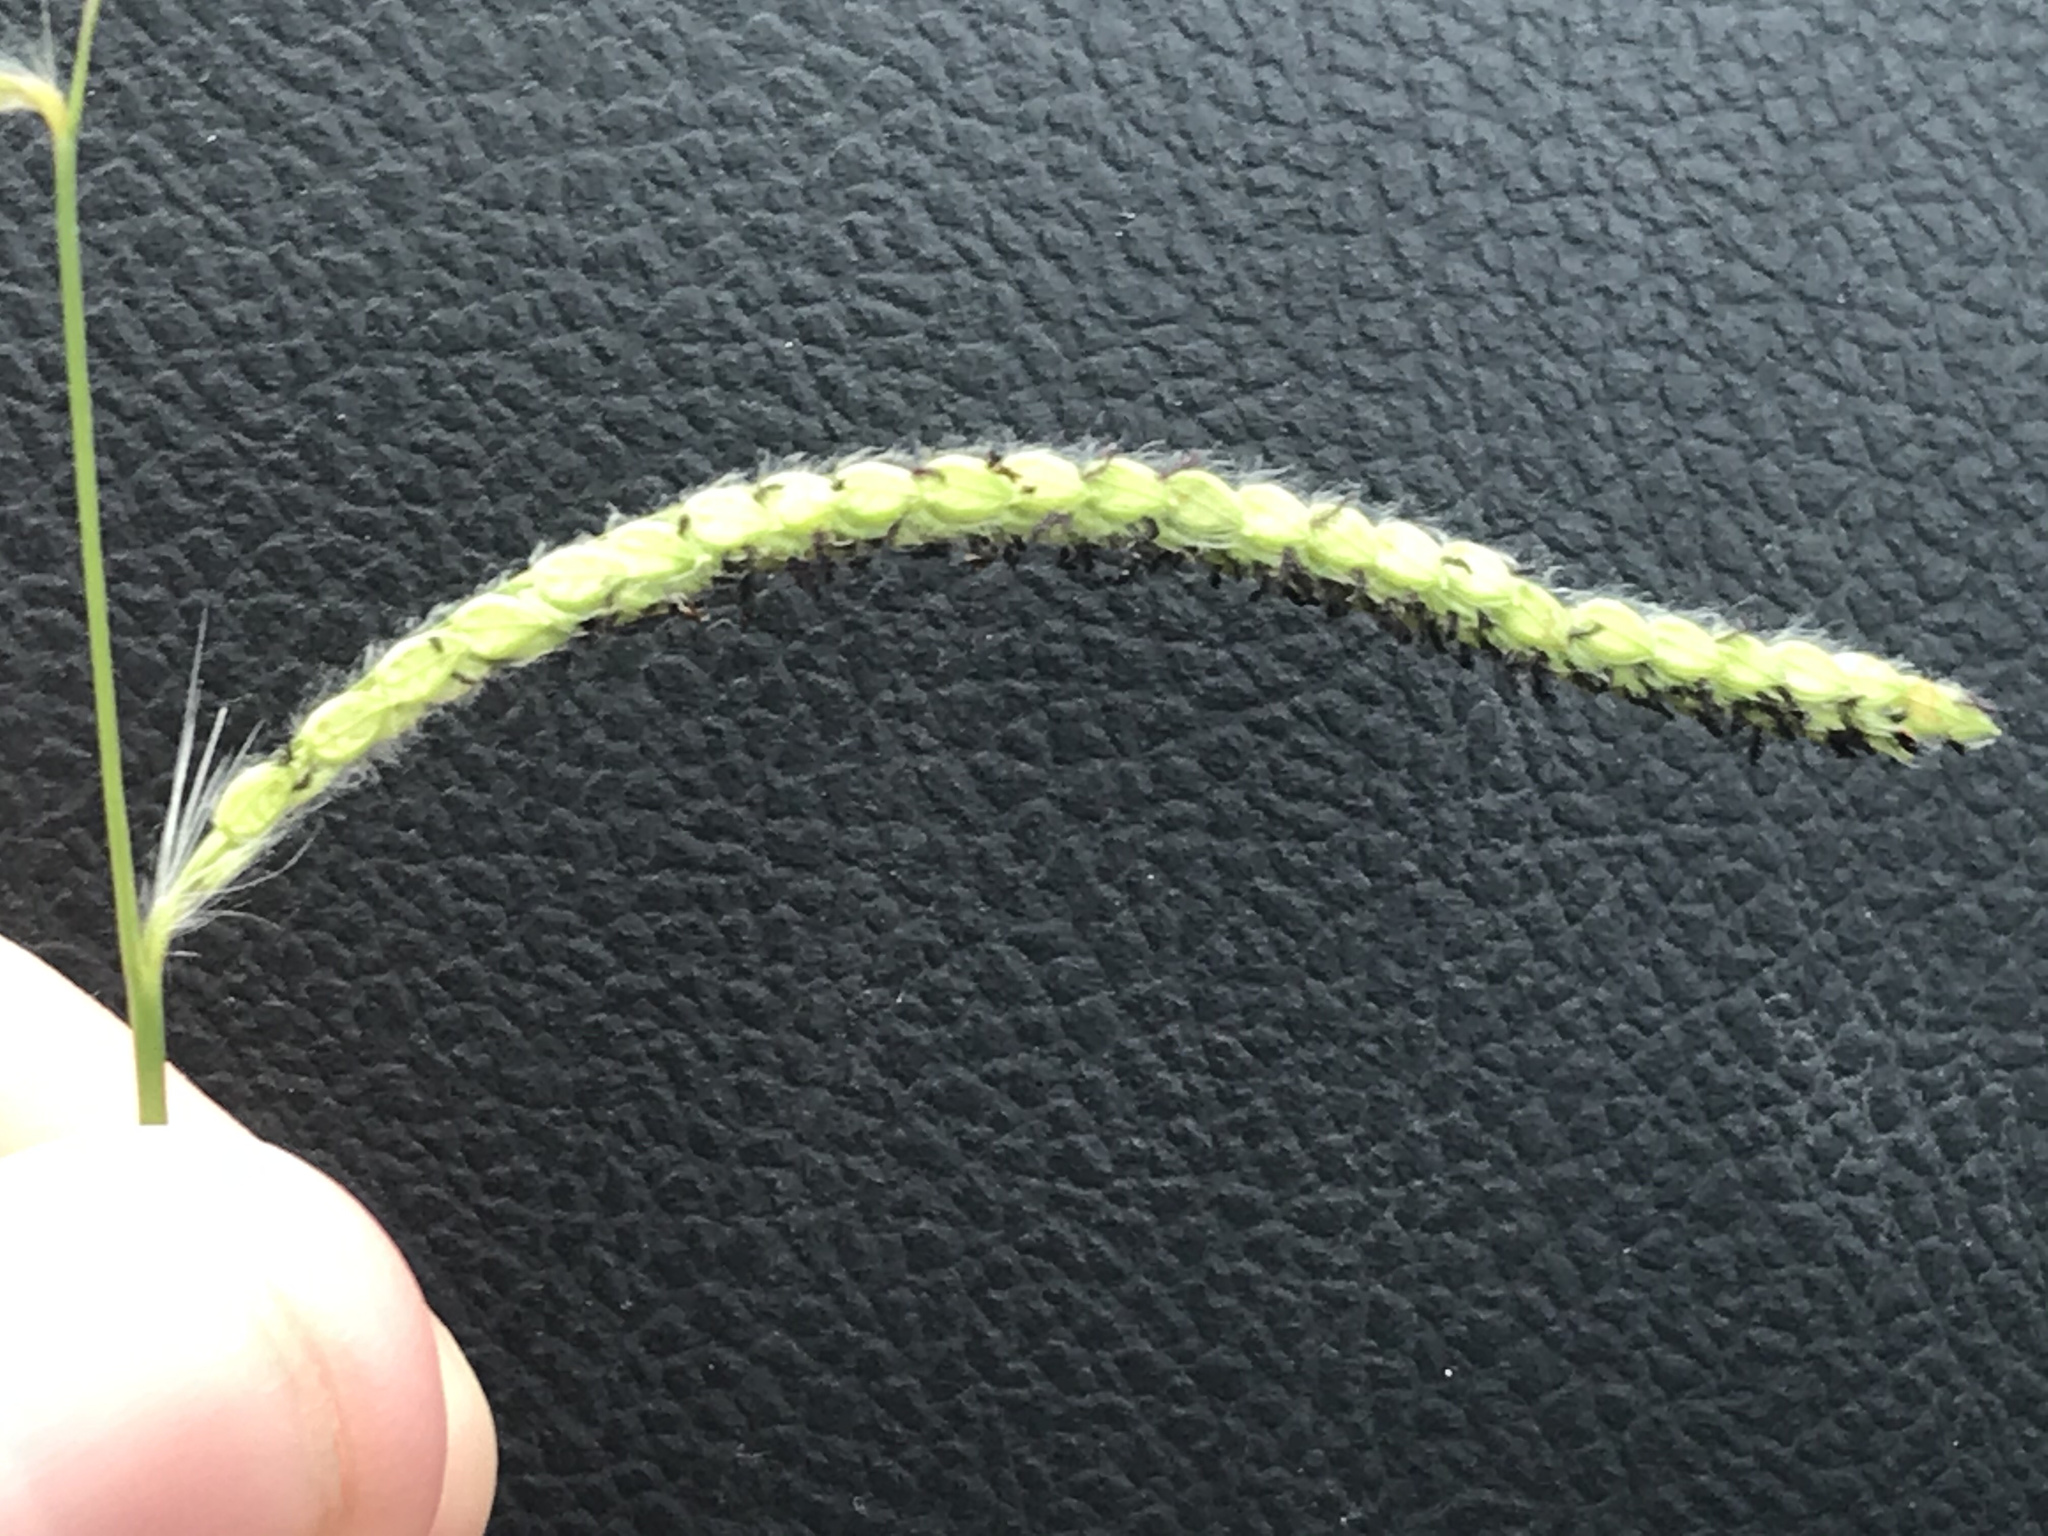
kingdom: Plantae
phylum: Tracheophyta
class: Liliopsida
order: Poales
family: Poaceae
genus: Paspalum
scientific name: Paspalum dilatatum
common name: Dallisgrass
